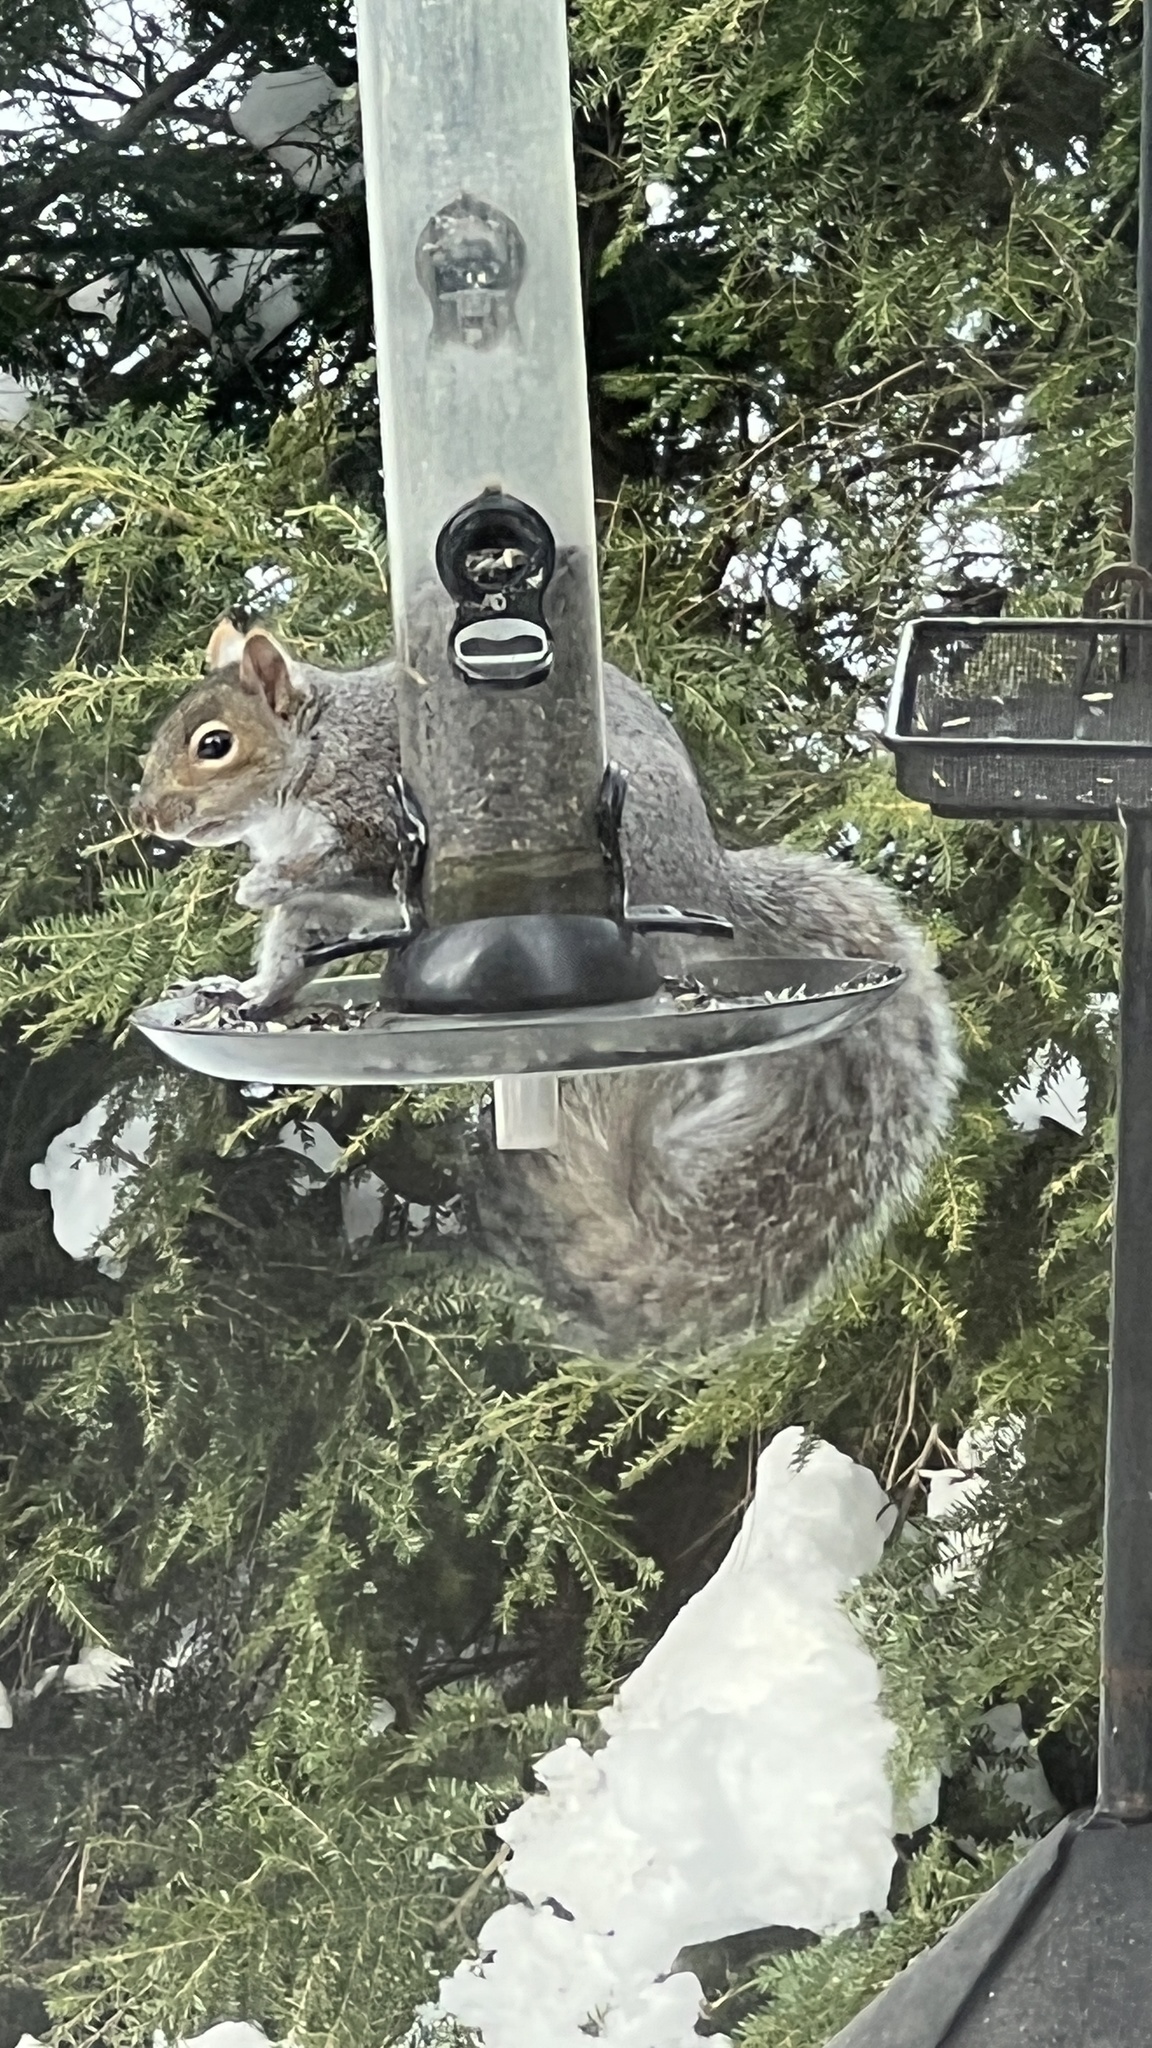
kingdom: Animalia
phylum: Chordata
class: Mammalia
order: Rodentia
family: Sciuridae
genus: Sciurus
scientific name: Sciurus carolinensis
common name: Eastern gray squirrel
